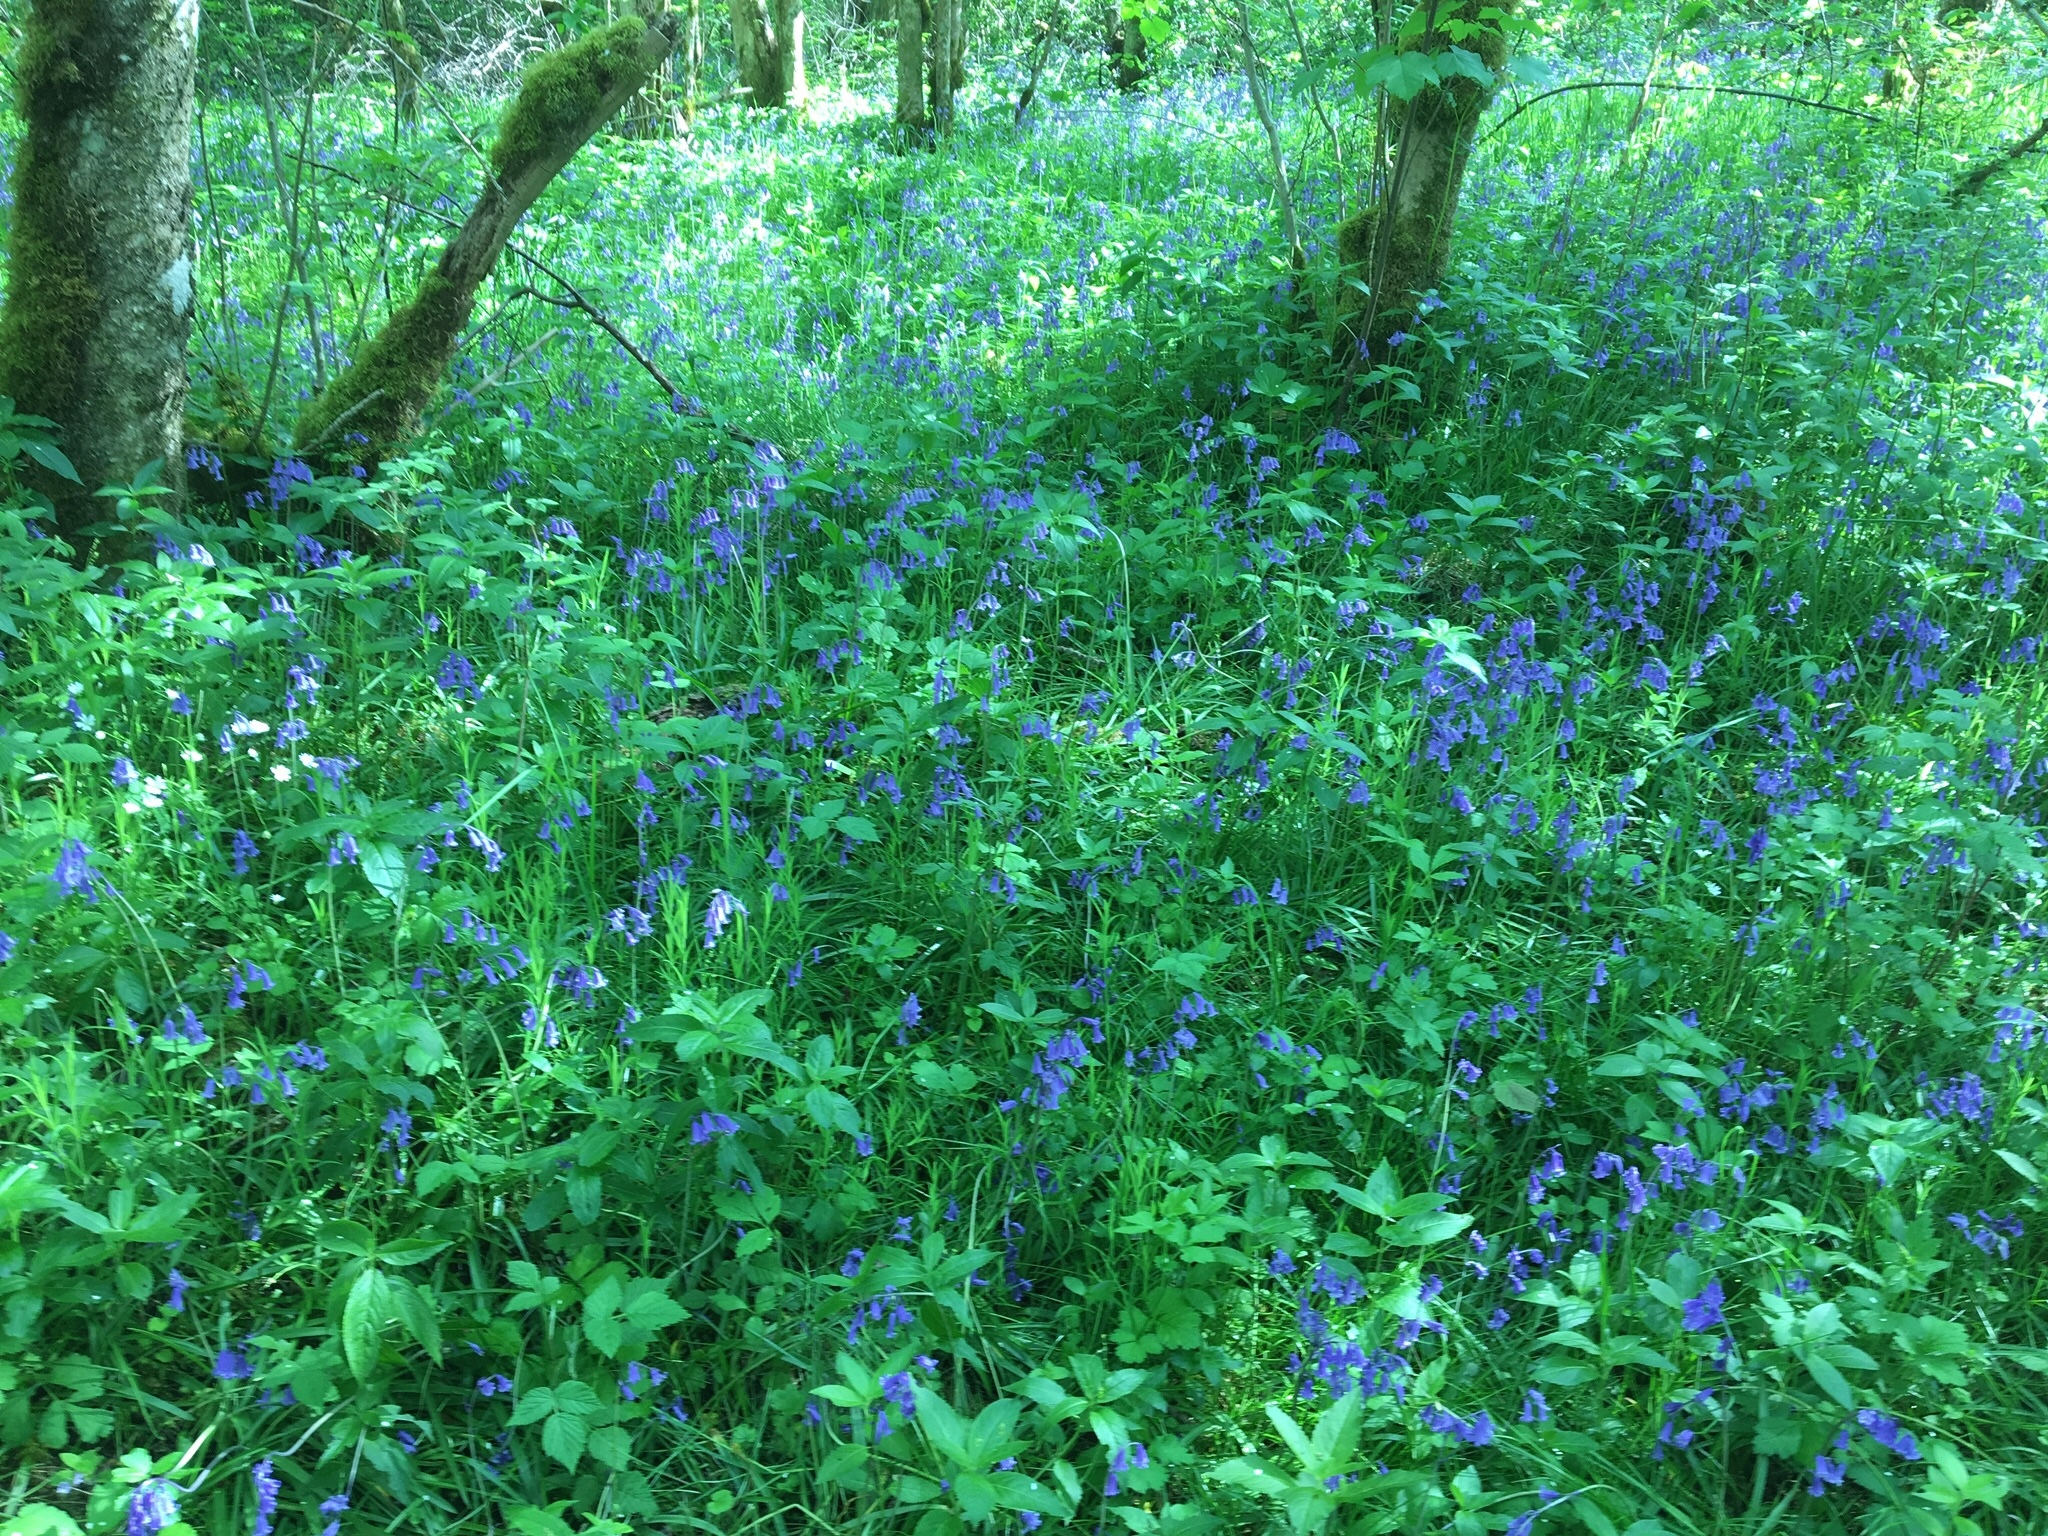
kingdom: Plantae
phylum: Tracheophyta
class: Liliopsida
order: Asparagales
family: Asparagaceae
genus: Hyacinthoides
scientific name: Hyacinthoides non-scripta
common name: Bluebell
